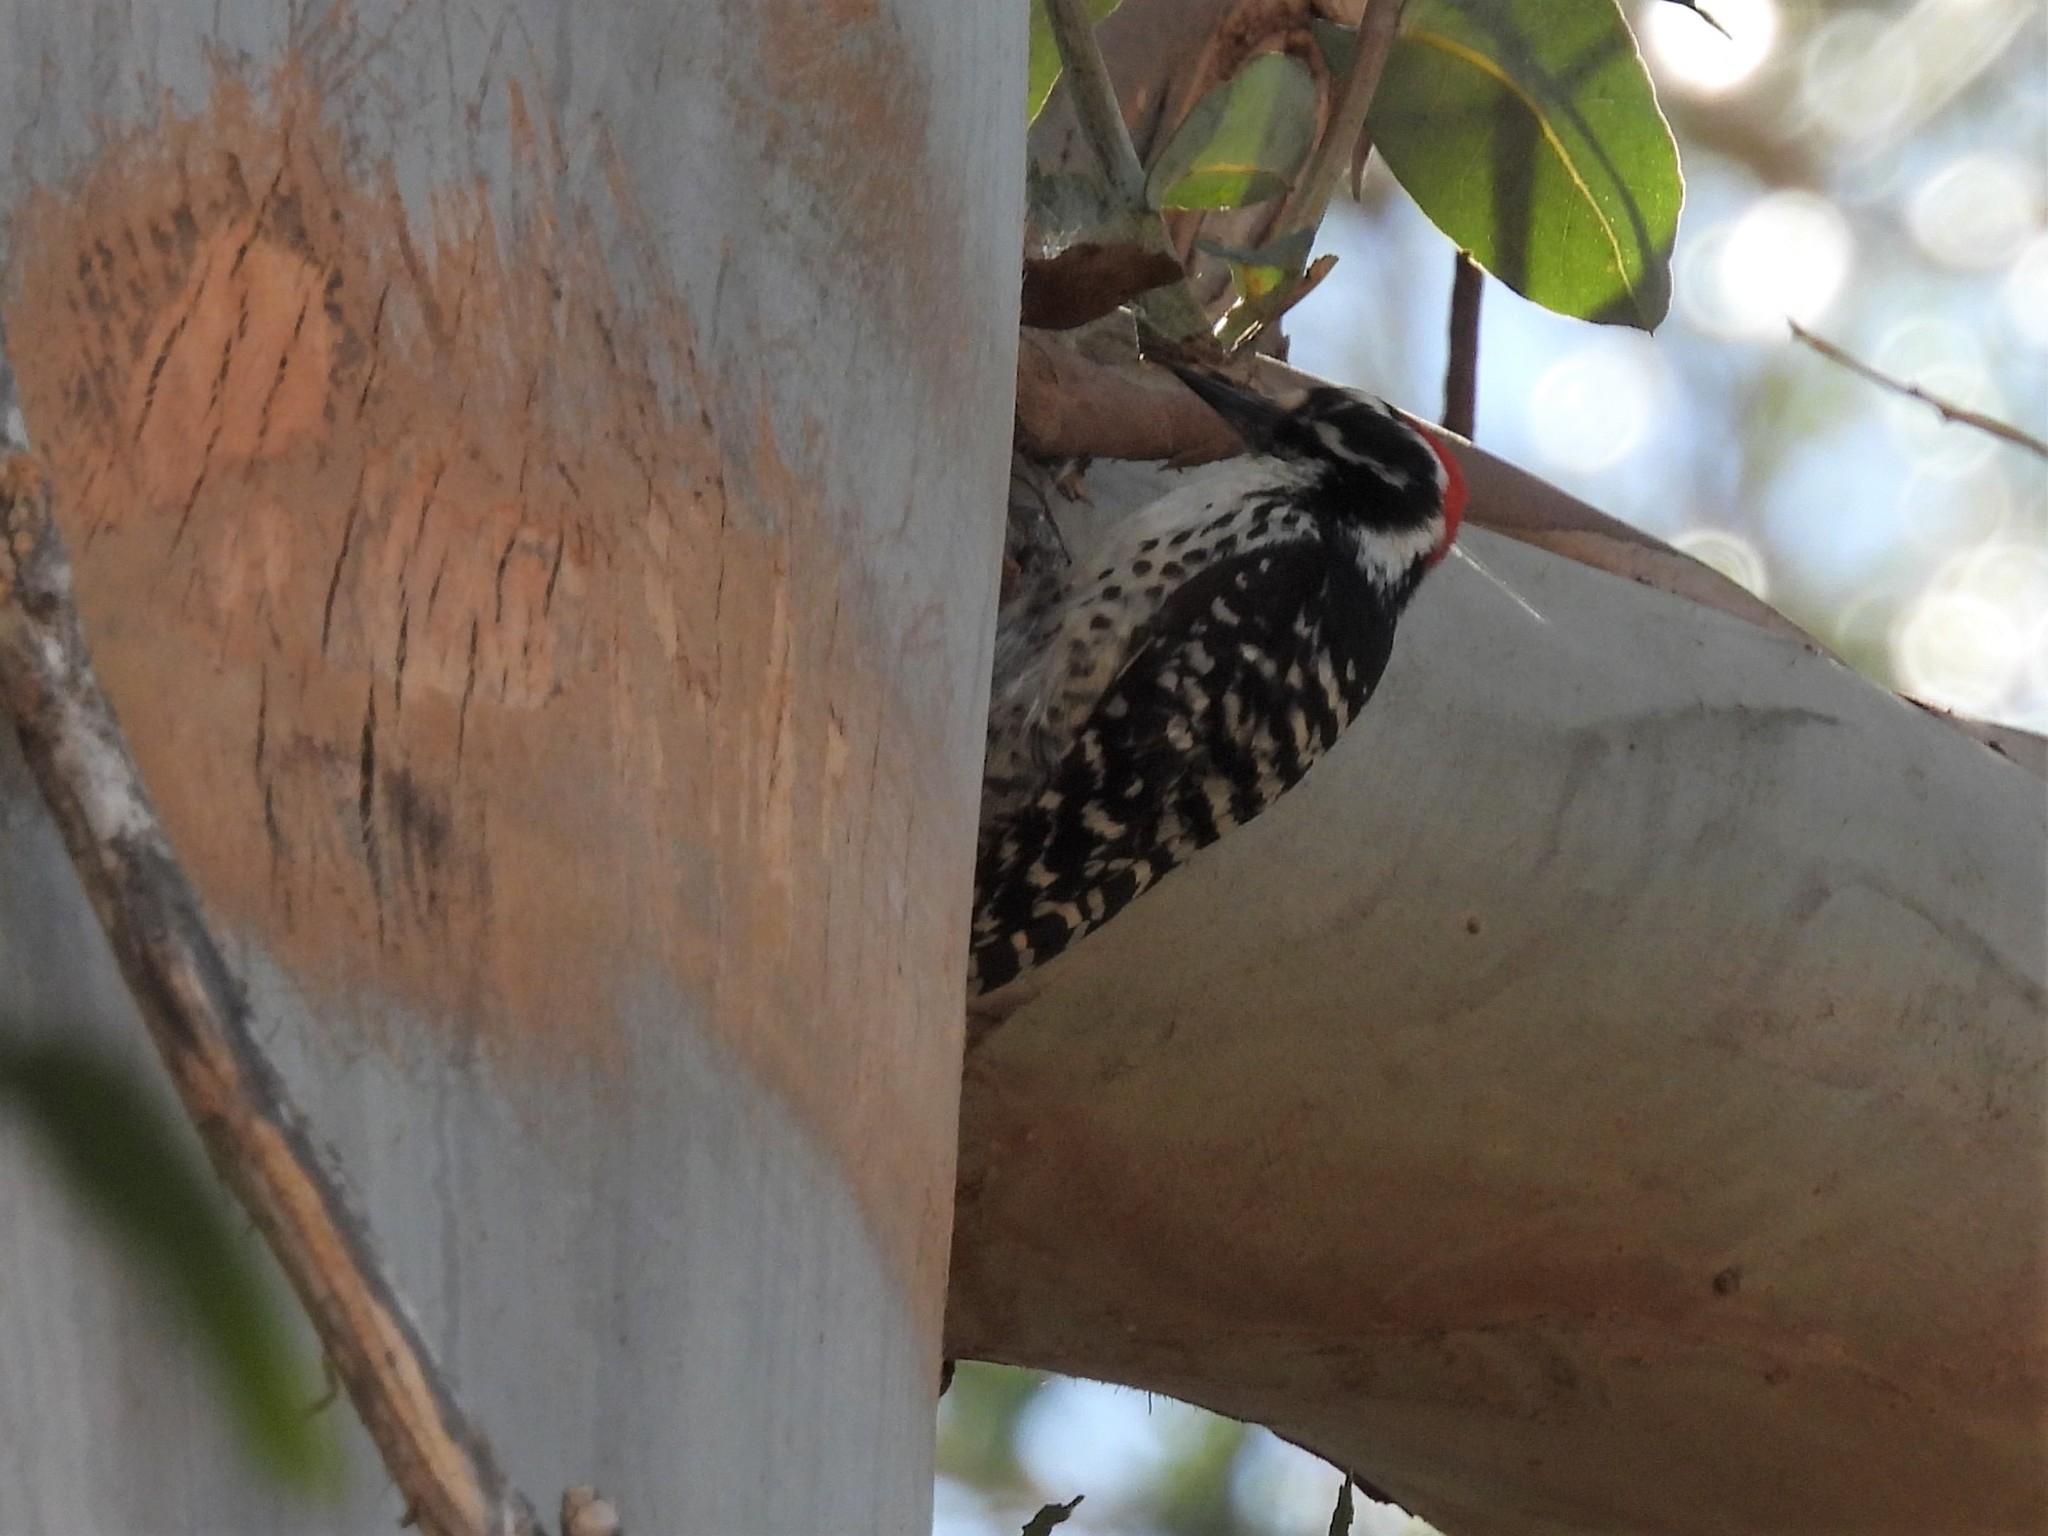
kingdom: Animalia
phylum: Chordata
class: Aves
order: Piciformes
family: Picidae
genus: Dryobates
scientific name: Dryobates nuttallii
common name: Nuttall's woodpecker
